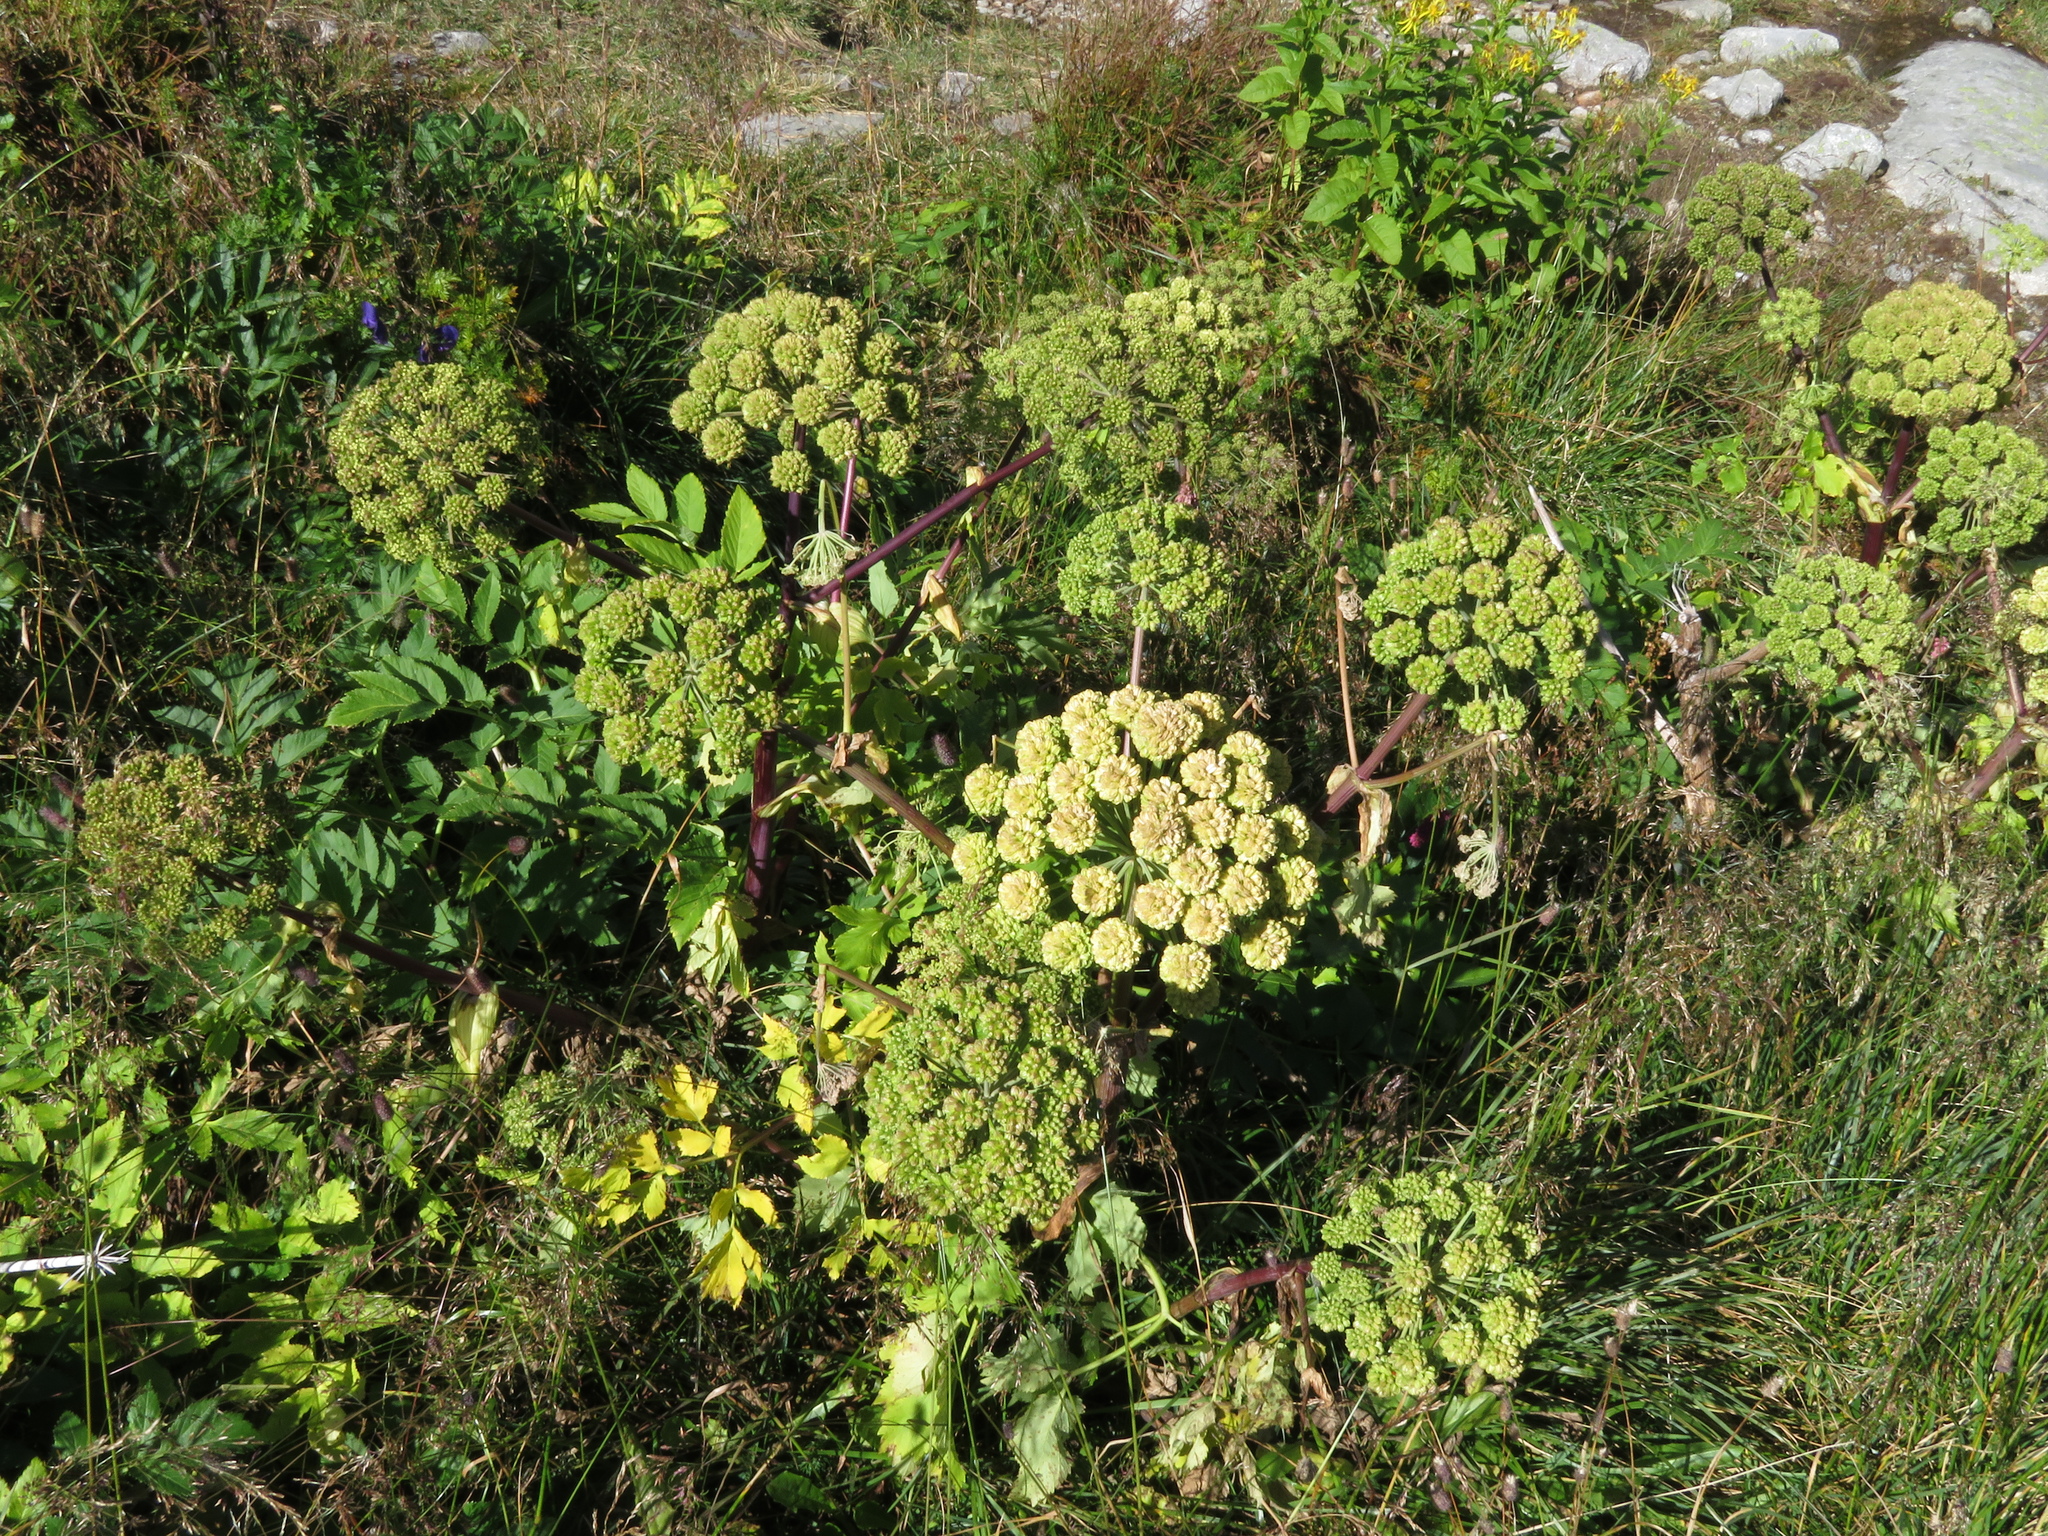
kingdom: Plantae
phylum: Tracheophyta
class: Magnoliopsida
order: Apiales
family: Apiaceae
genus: Angelica
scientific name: Angelica archangelica
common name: Garden angelica
